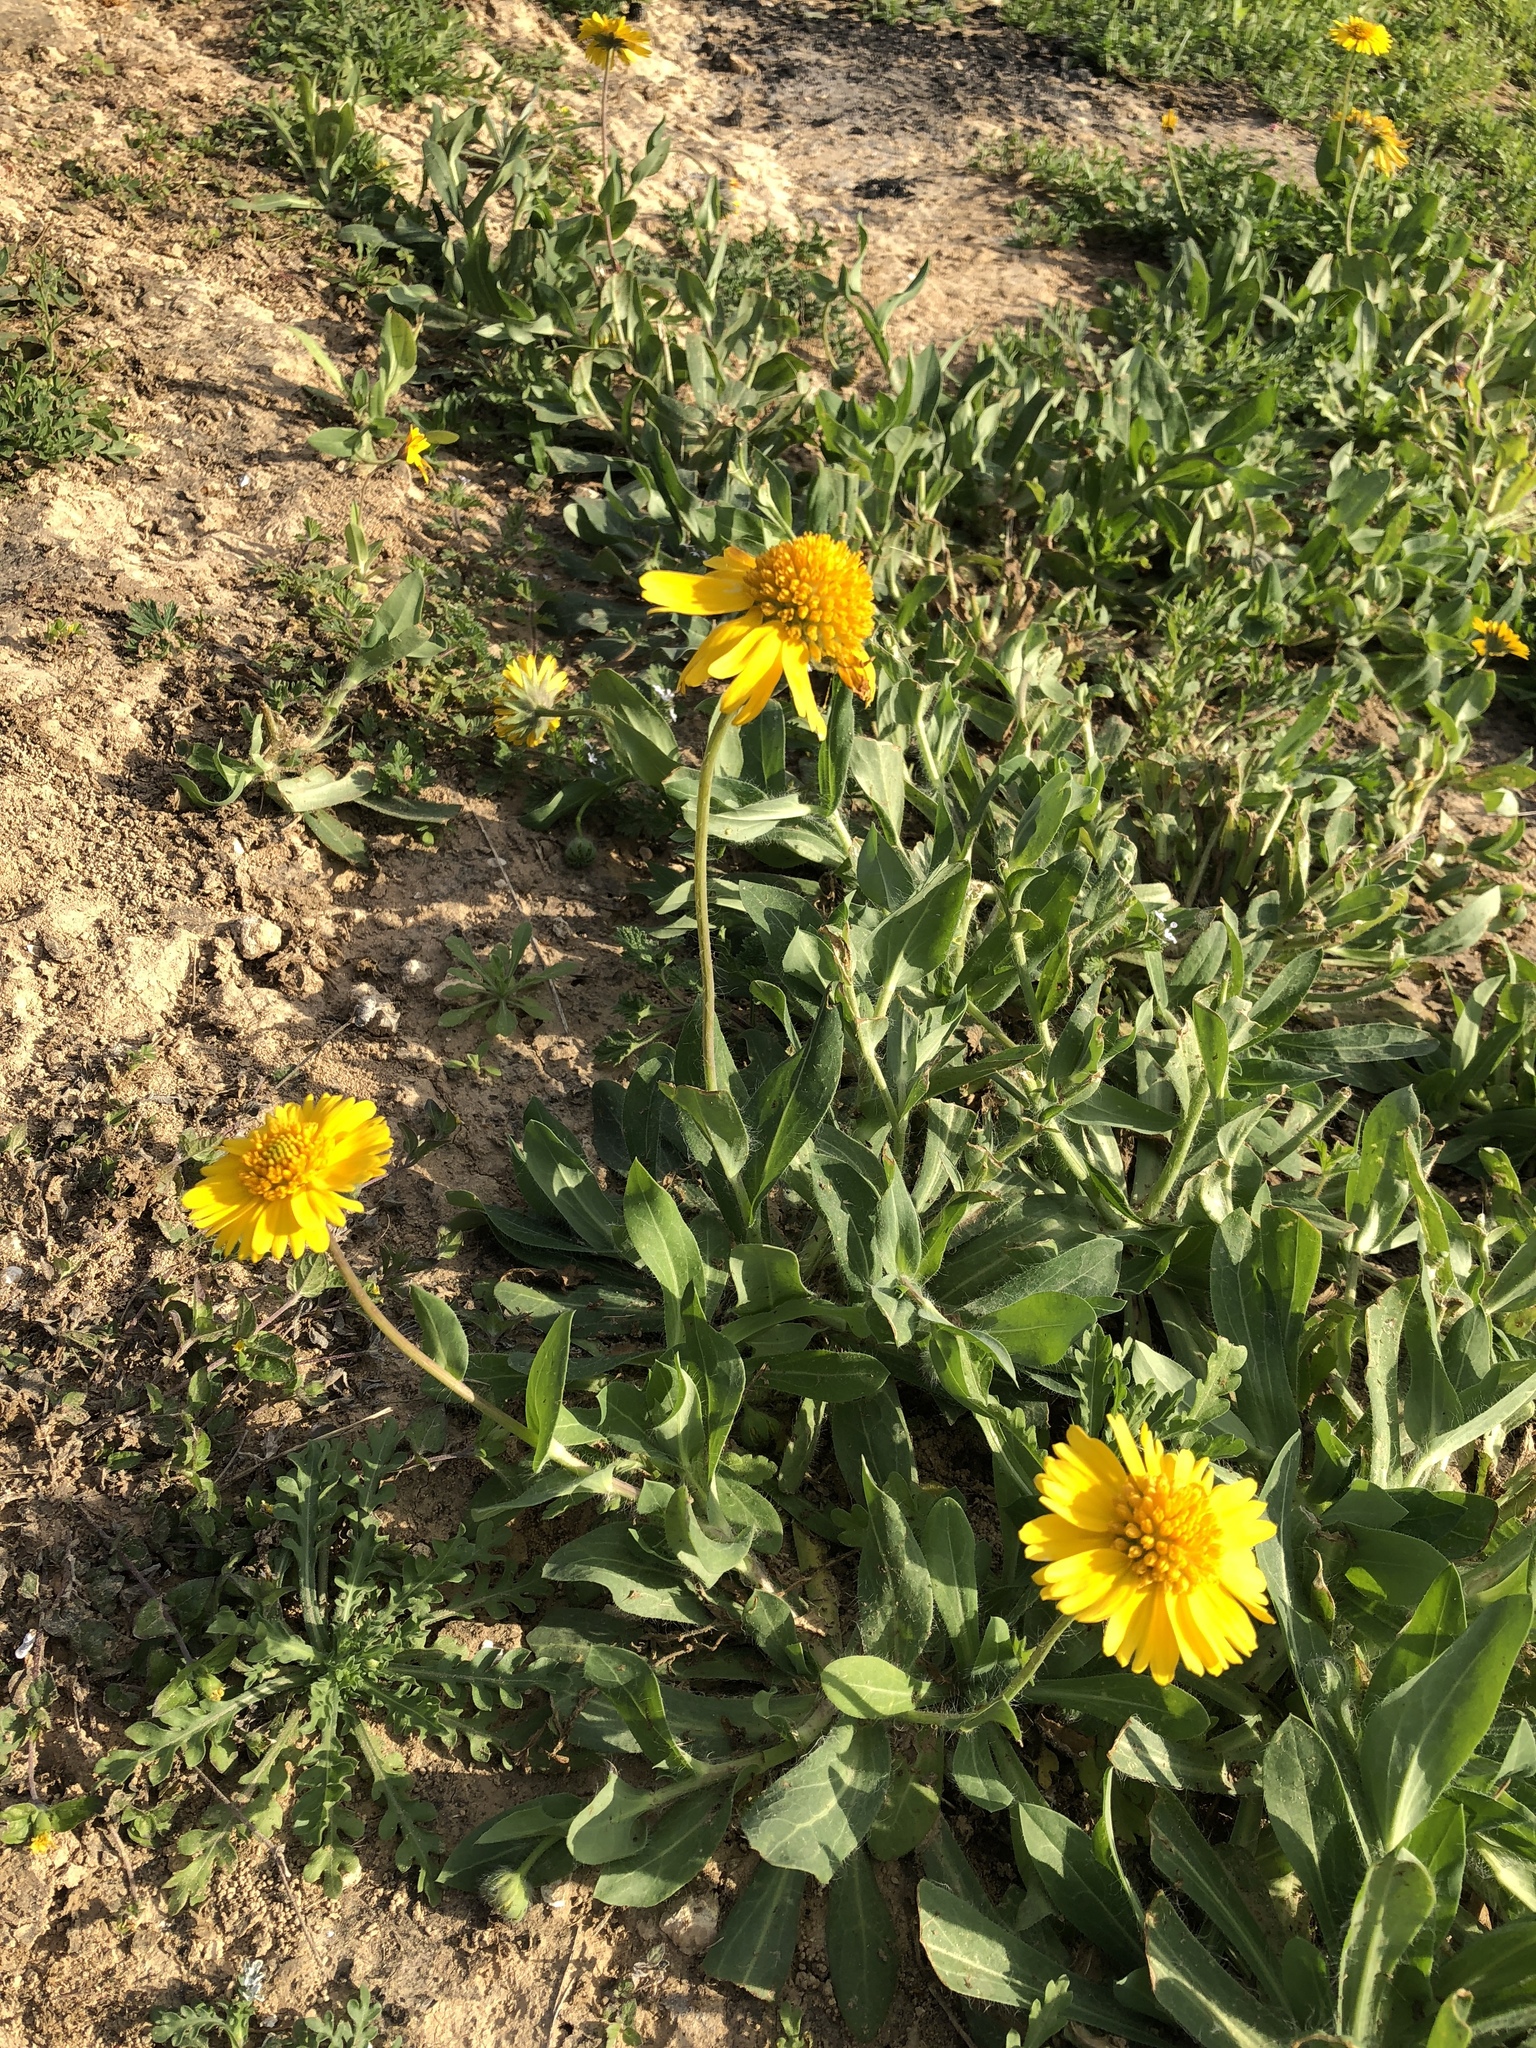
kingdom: Plantae
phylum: Tracheophyta
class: Magnoliopsida
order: Asterales
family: Asteraceae
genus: Amblyolepis
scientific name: Amblyolepis setigera
